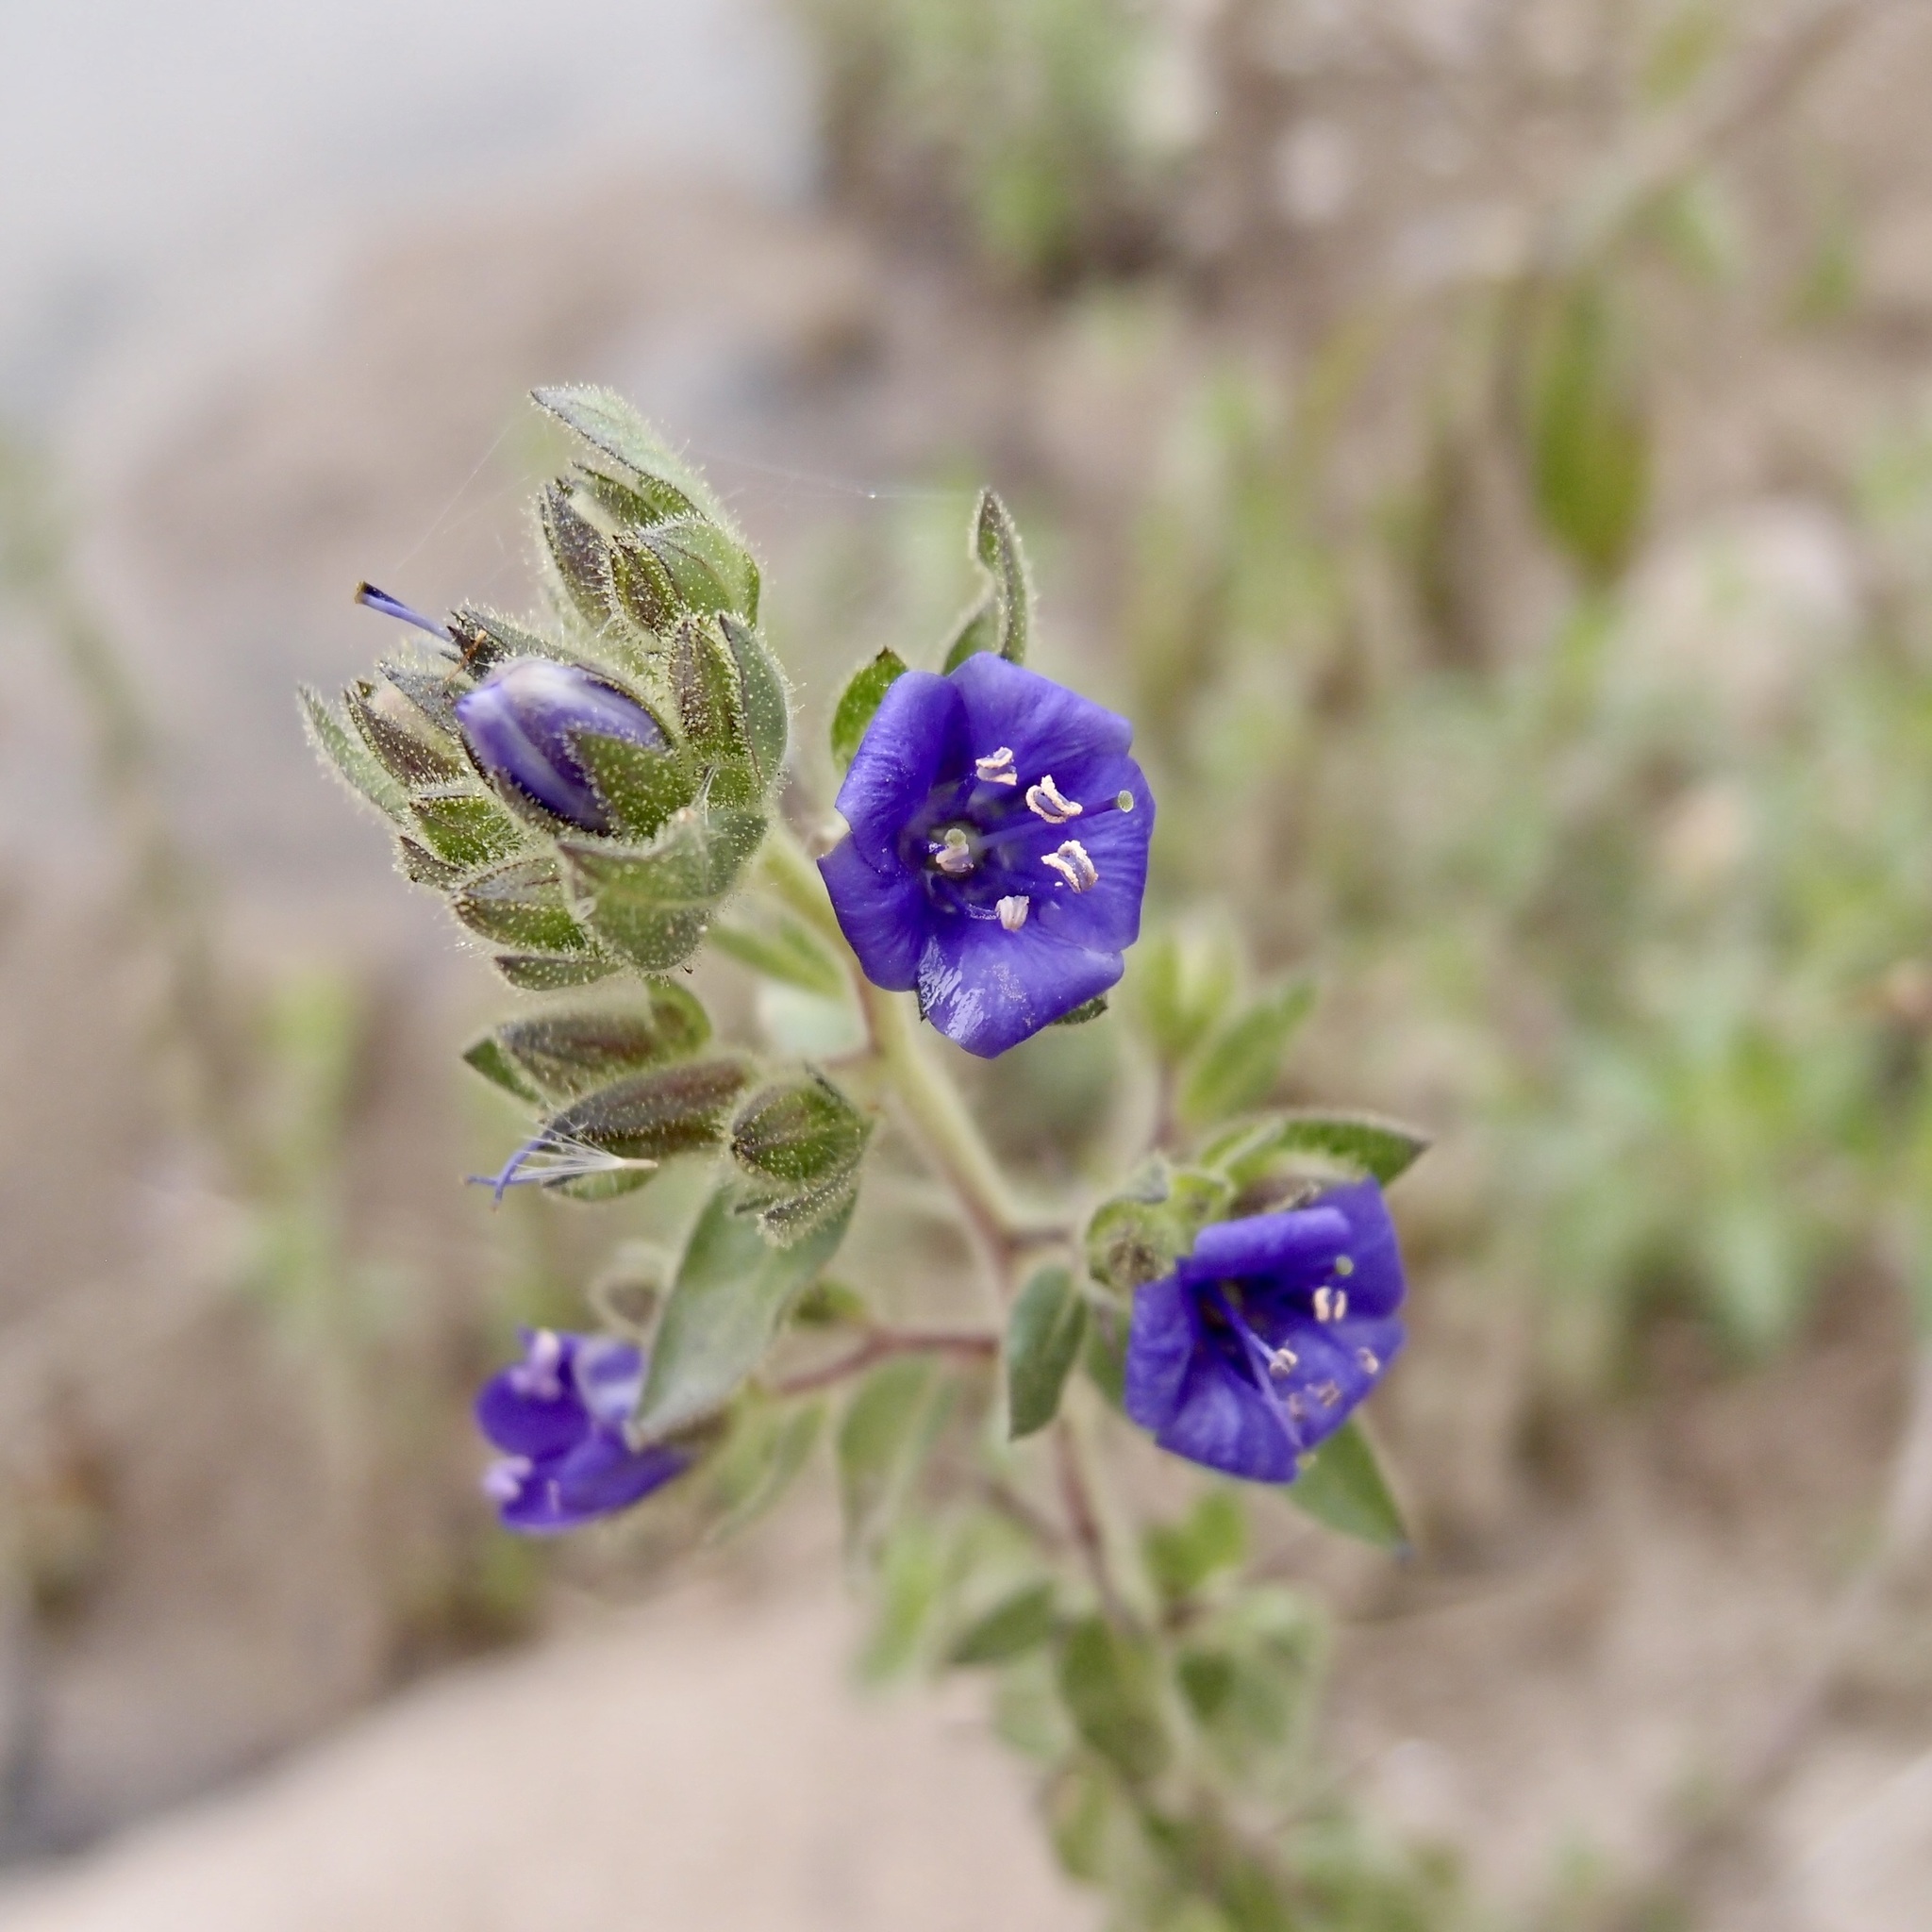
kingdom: Plantae
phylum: Tracheophyta
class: Magnoliopsida
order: Solanales
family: Hydroleaceae
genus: Hydrolea
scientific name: Hydrolea spinosa
